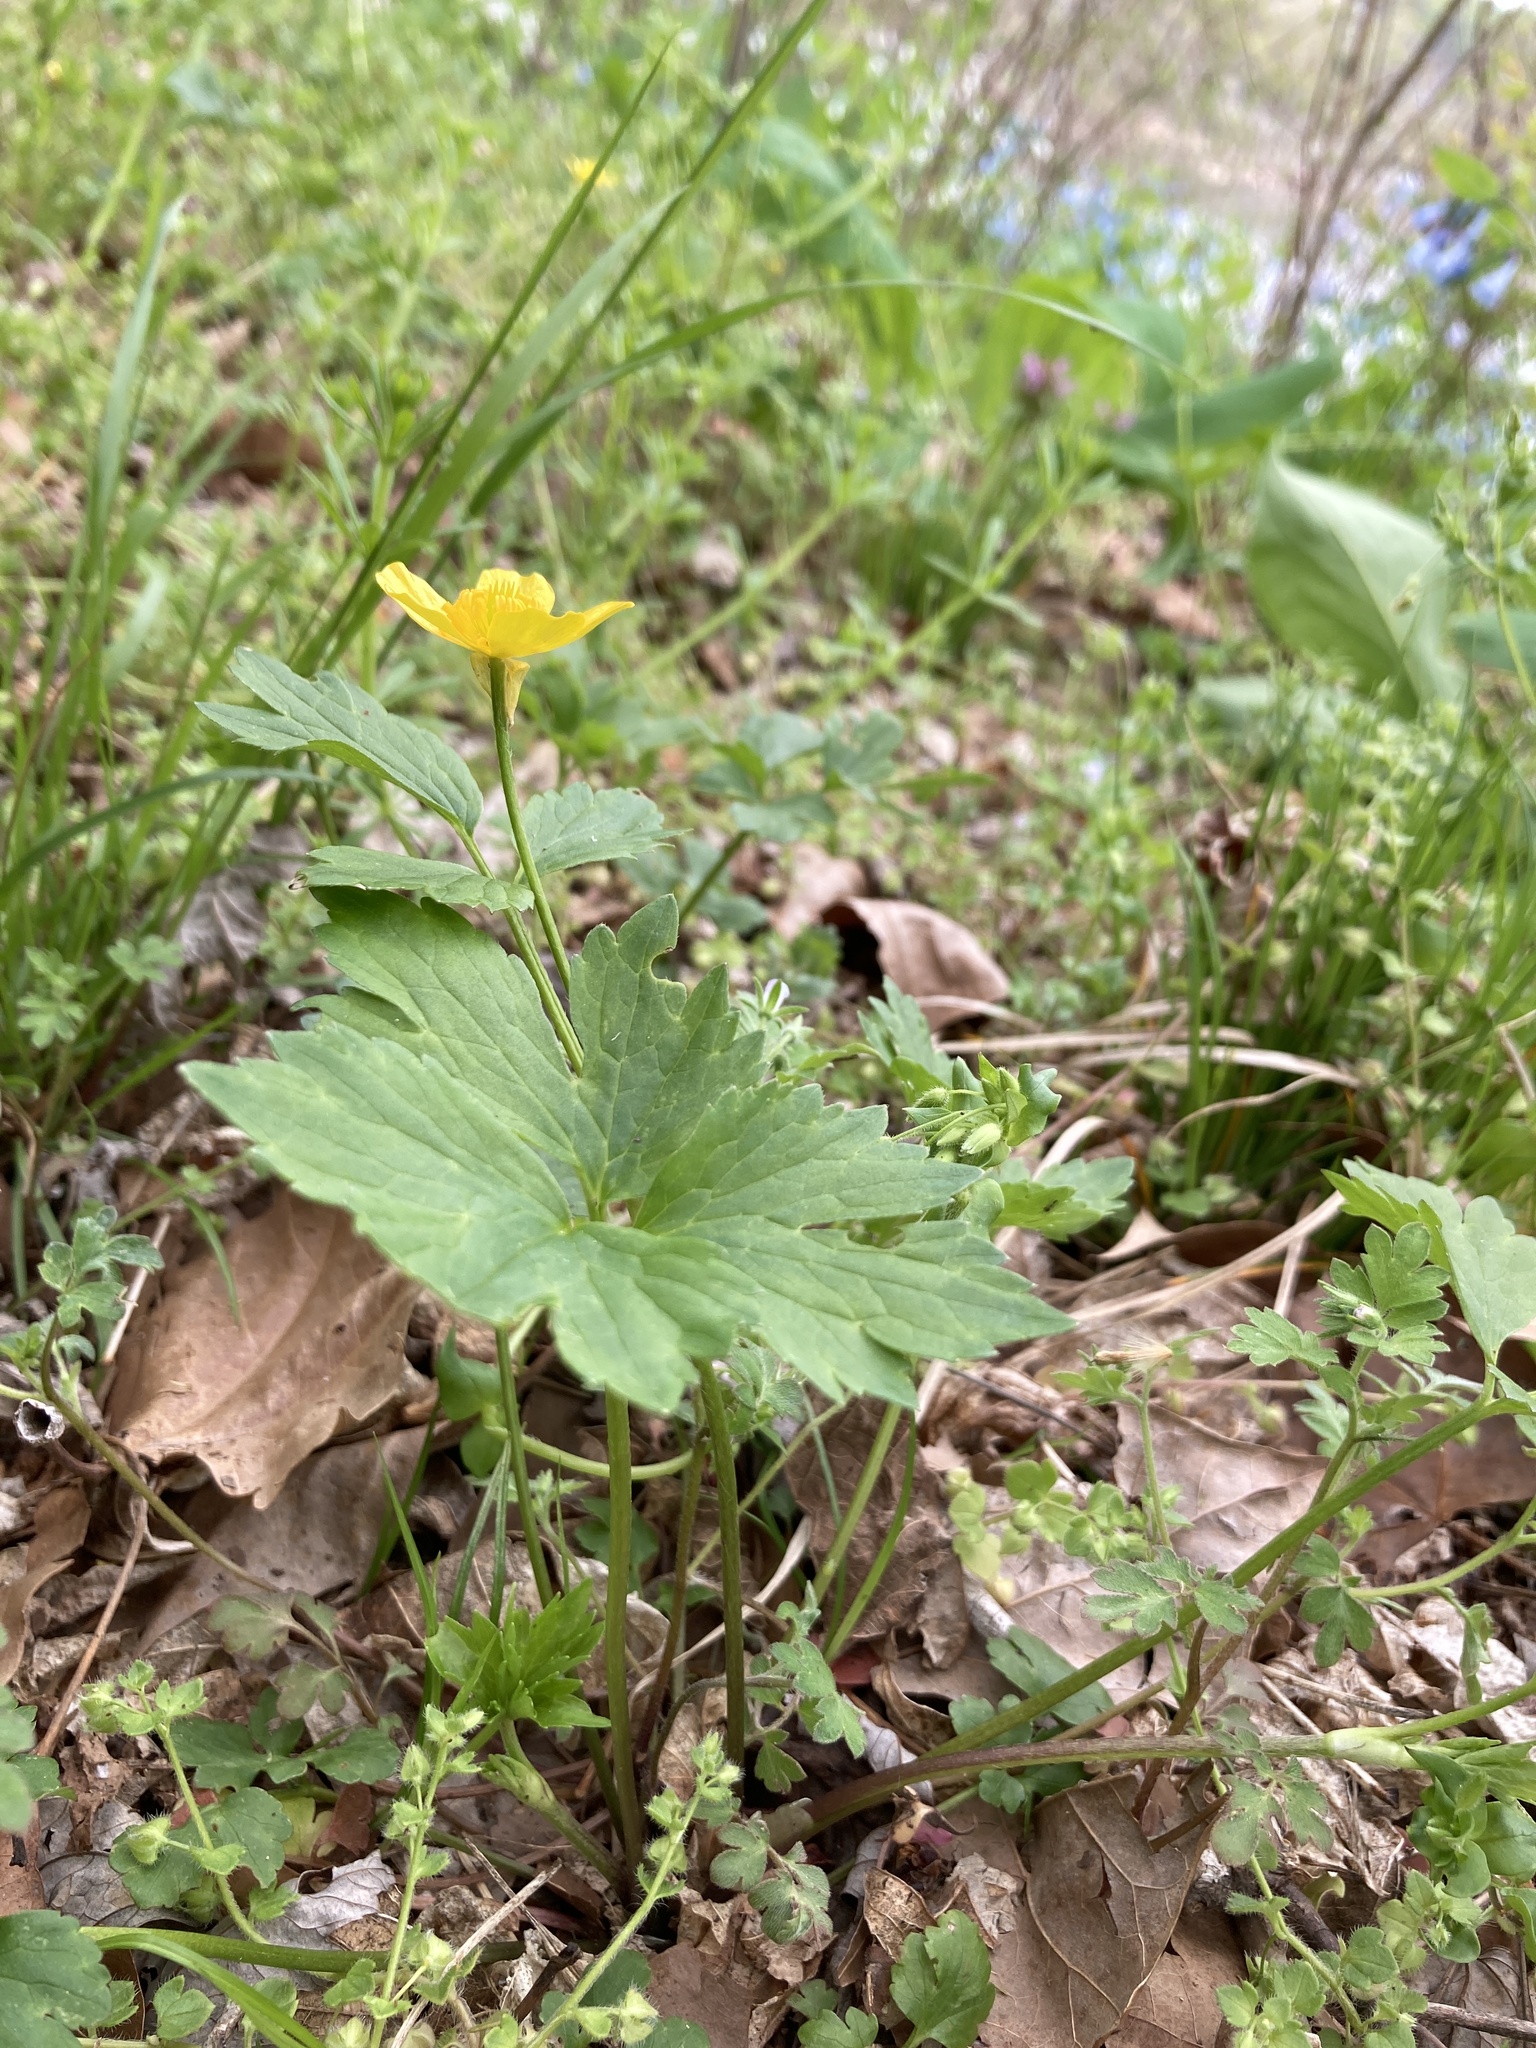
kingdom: Plantae
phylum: Tracheophyta
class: Magnoliopsida
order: Ranunculales
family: Ranunculaceae
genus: Ranunculus
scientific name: Ranunculus hispidus
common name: Bristly buttercup
